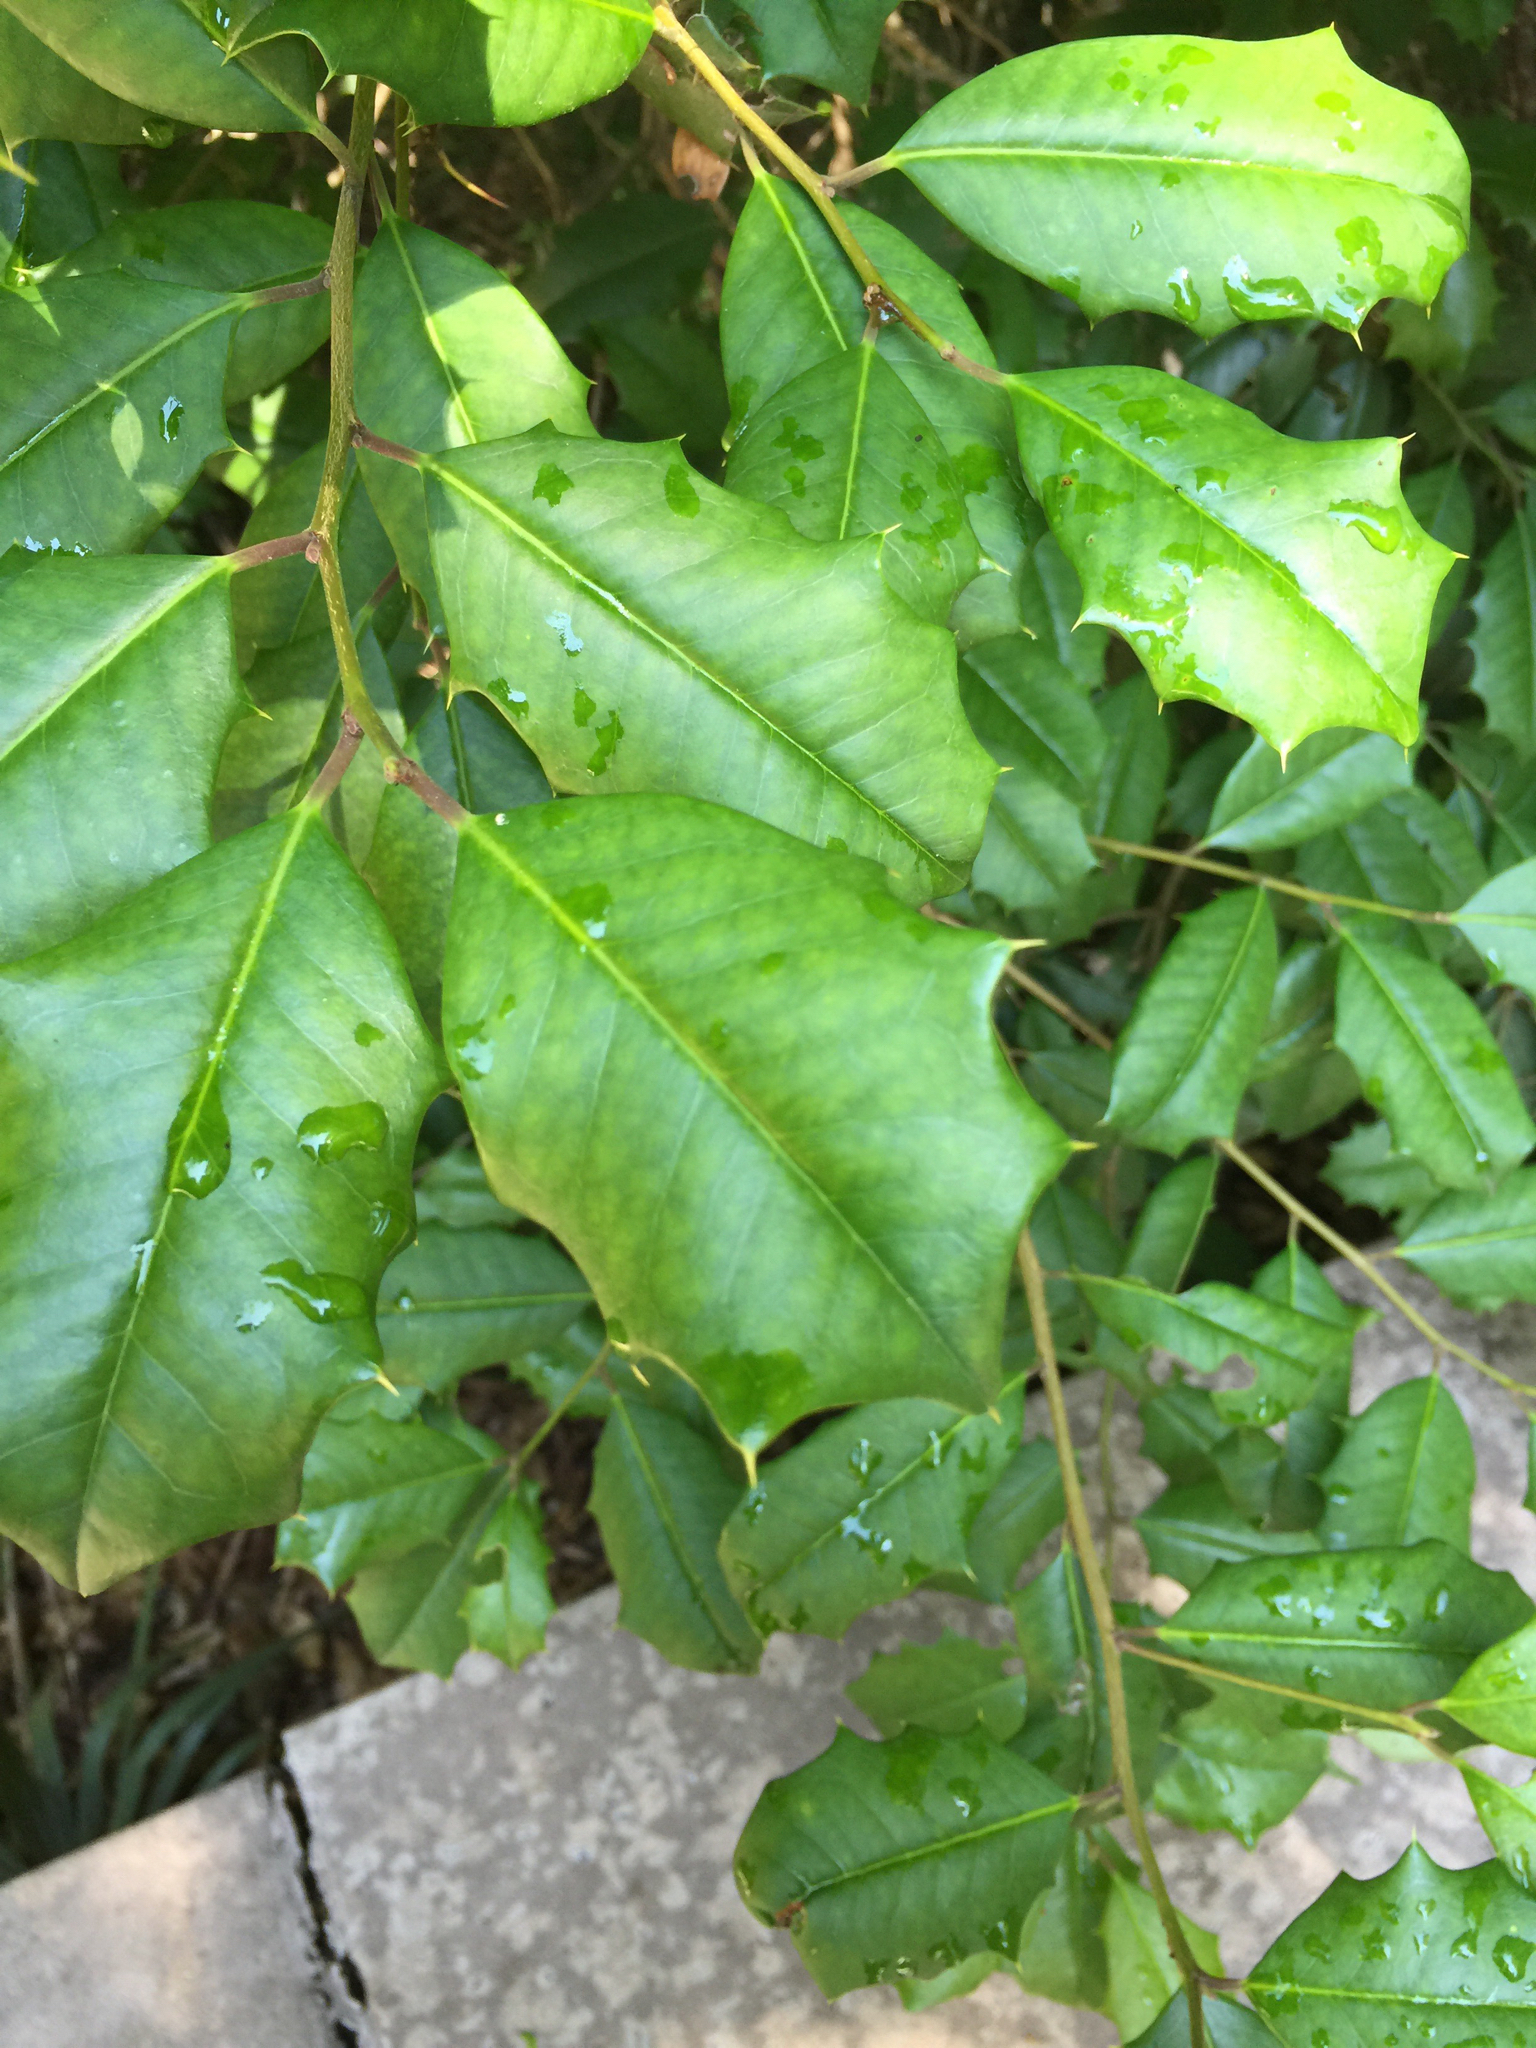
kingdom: Plantae
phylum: Tracheophyta
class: Magnoliopsida
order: Aquifoliales
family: Aquifoliaceae
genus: Ilex
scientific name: Ilex opaca
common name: American holly
